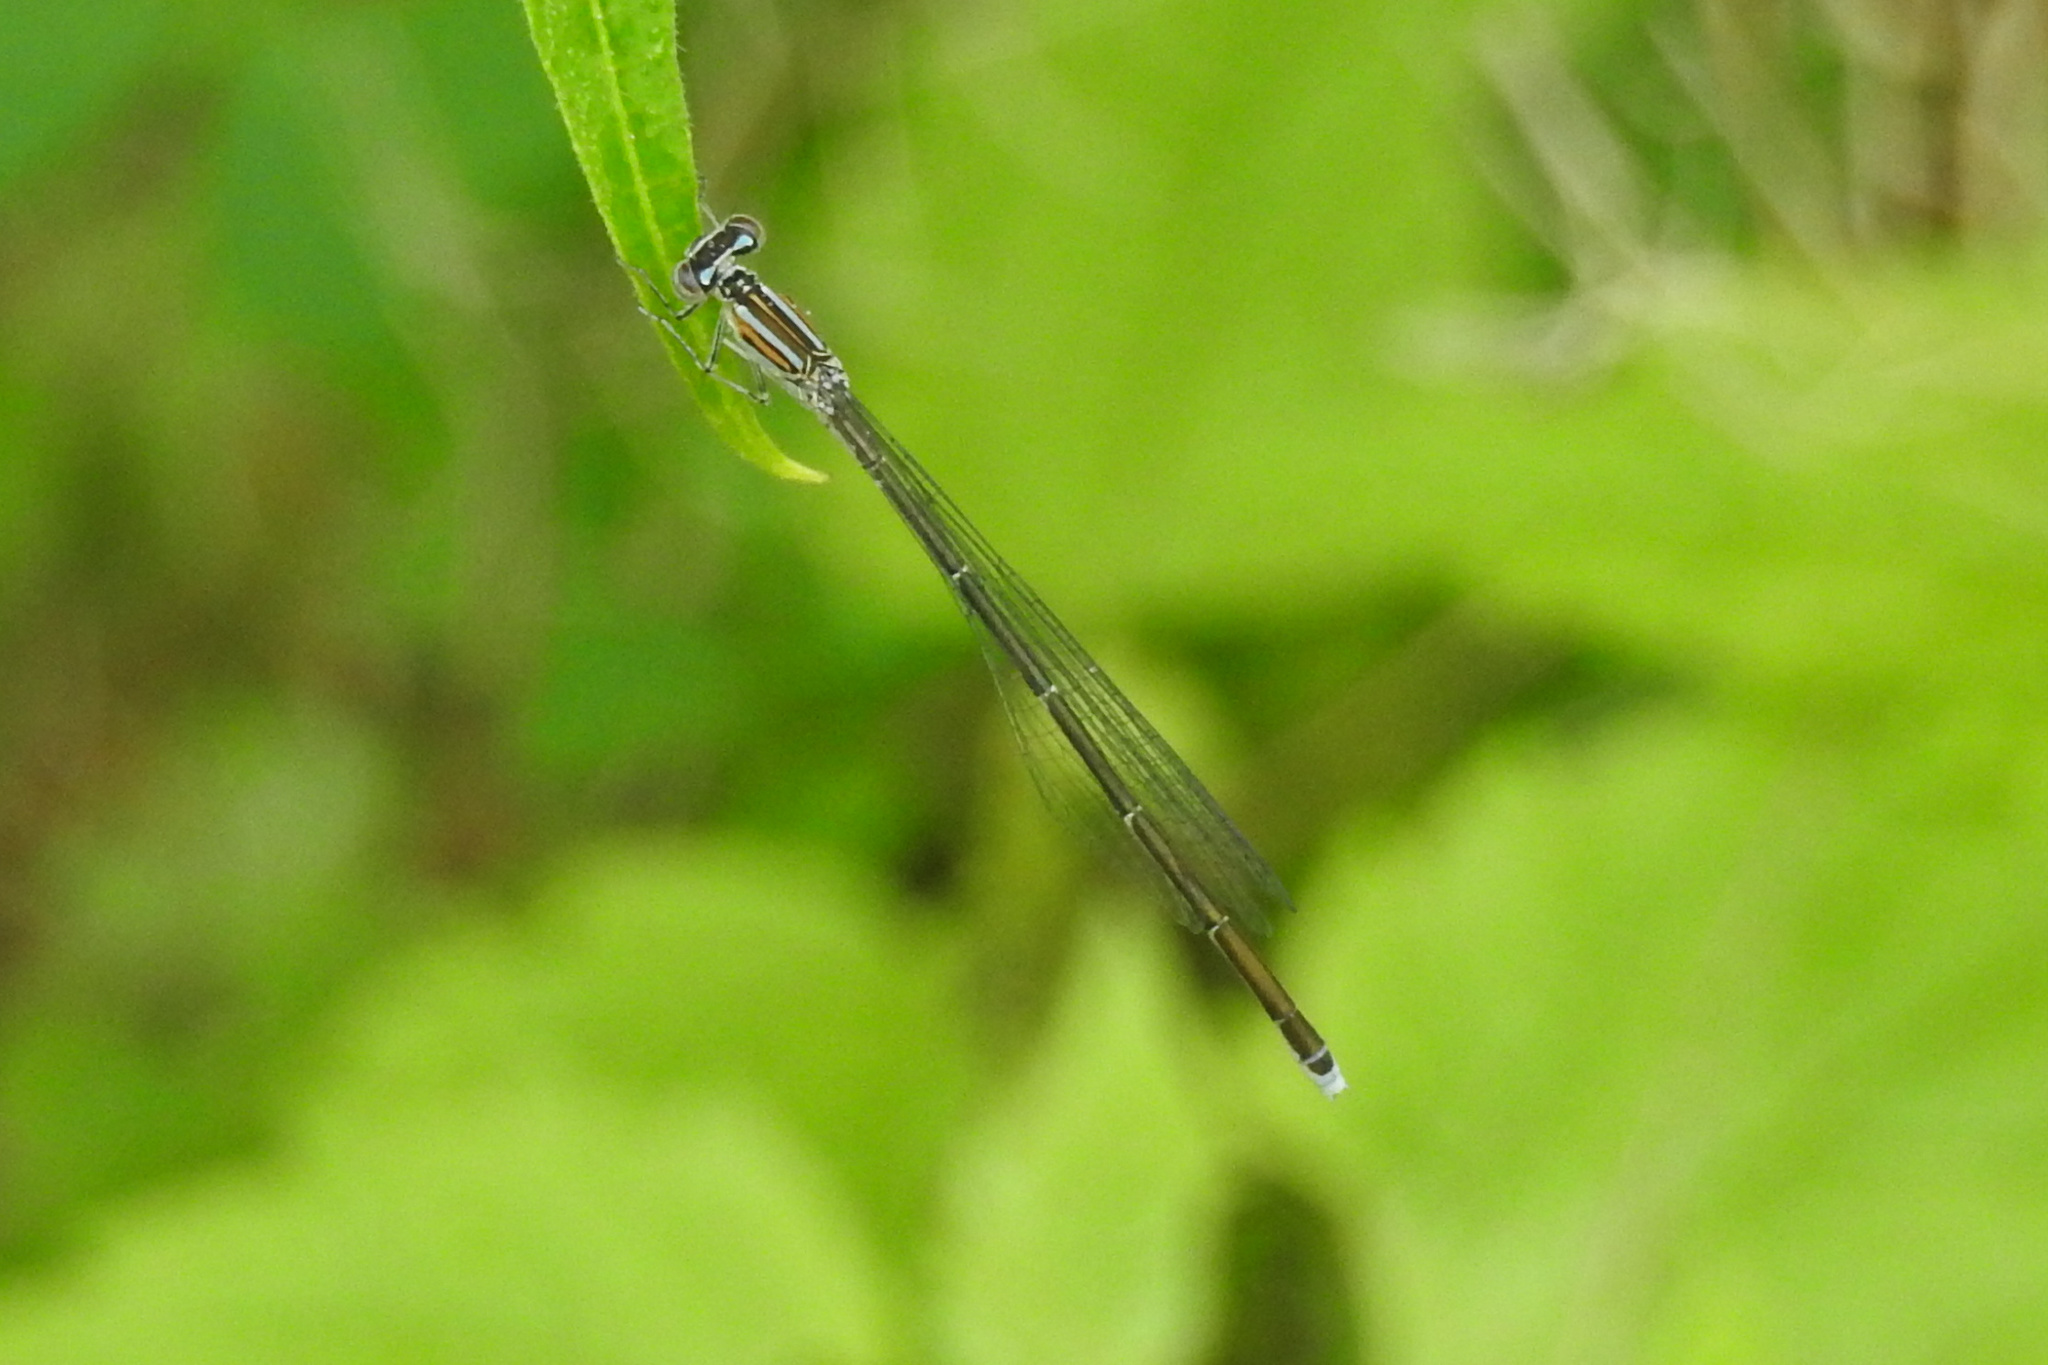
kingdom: Animalia
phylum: Arthropoda
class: Insecta
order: Odonata
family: Coenagrionidae
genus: Enallagma
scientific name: Enallagma exsulans
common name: Stream bluet
